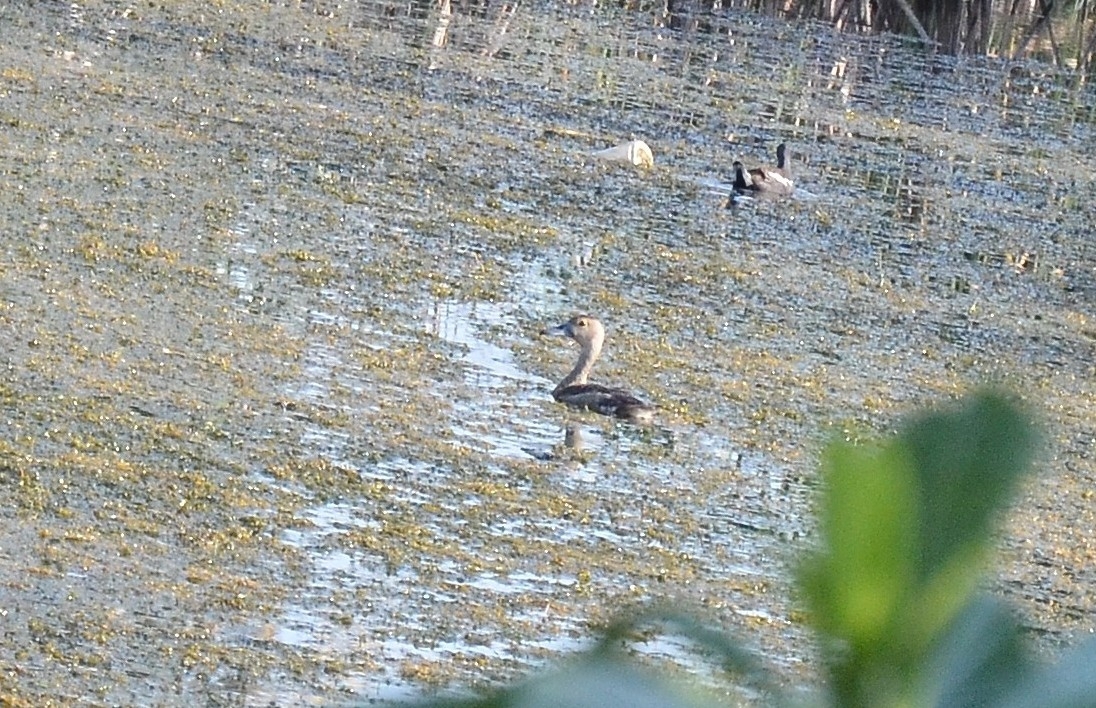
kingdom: Animalia
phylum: Chordata
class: Aves
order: Anseriformes
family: Anatidae
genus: Dendrocygna
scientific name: Dendrocygna javanica
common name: Lesser whistling-duck
